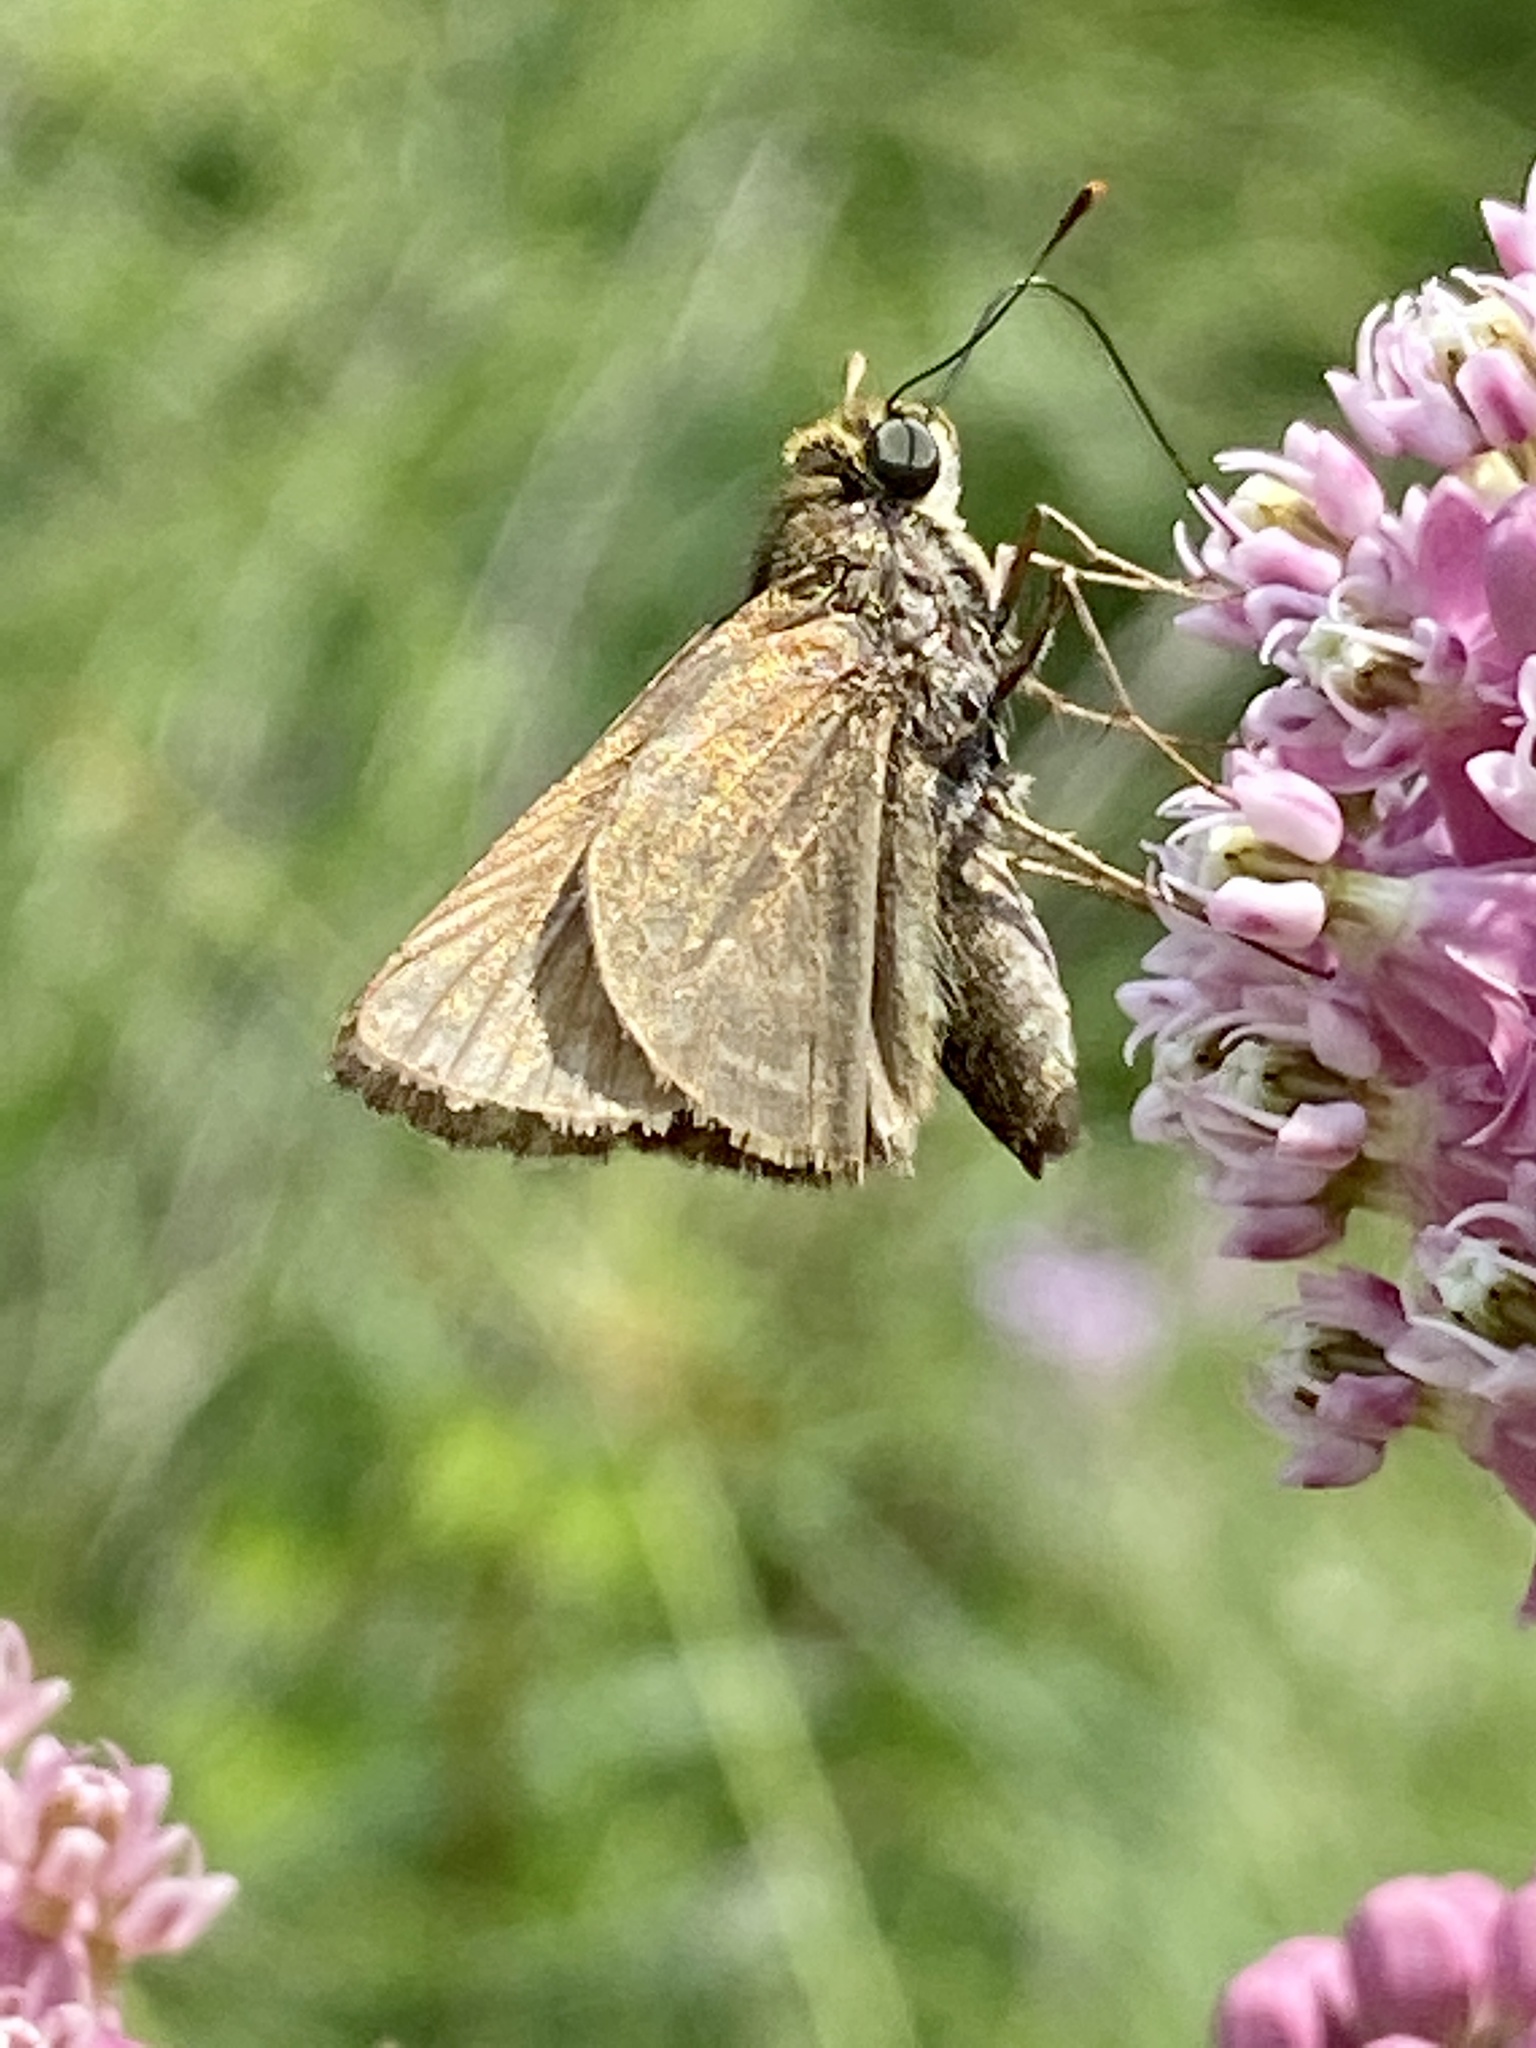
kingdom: Animalia
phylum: Arthropoda
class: Insecta
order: Lepidoptera
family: Hesperiidae
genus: Euphyes
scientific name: Euphyes vestris
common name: Dun skipper
